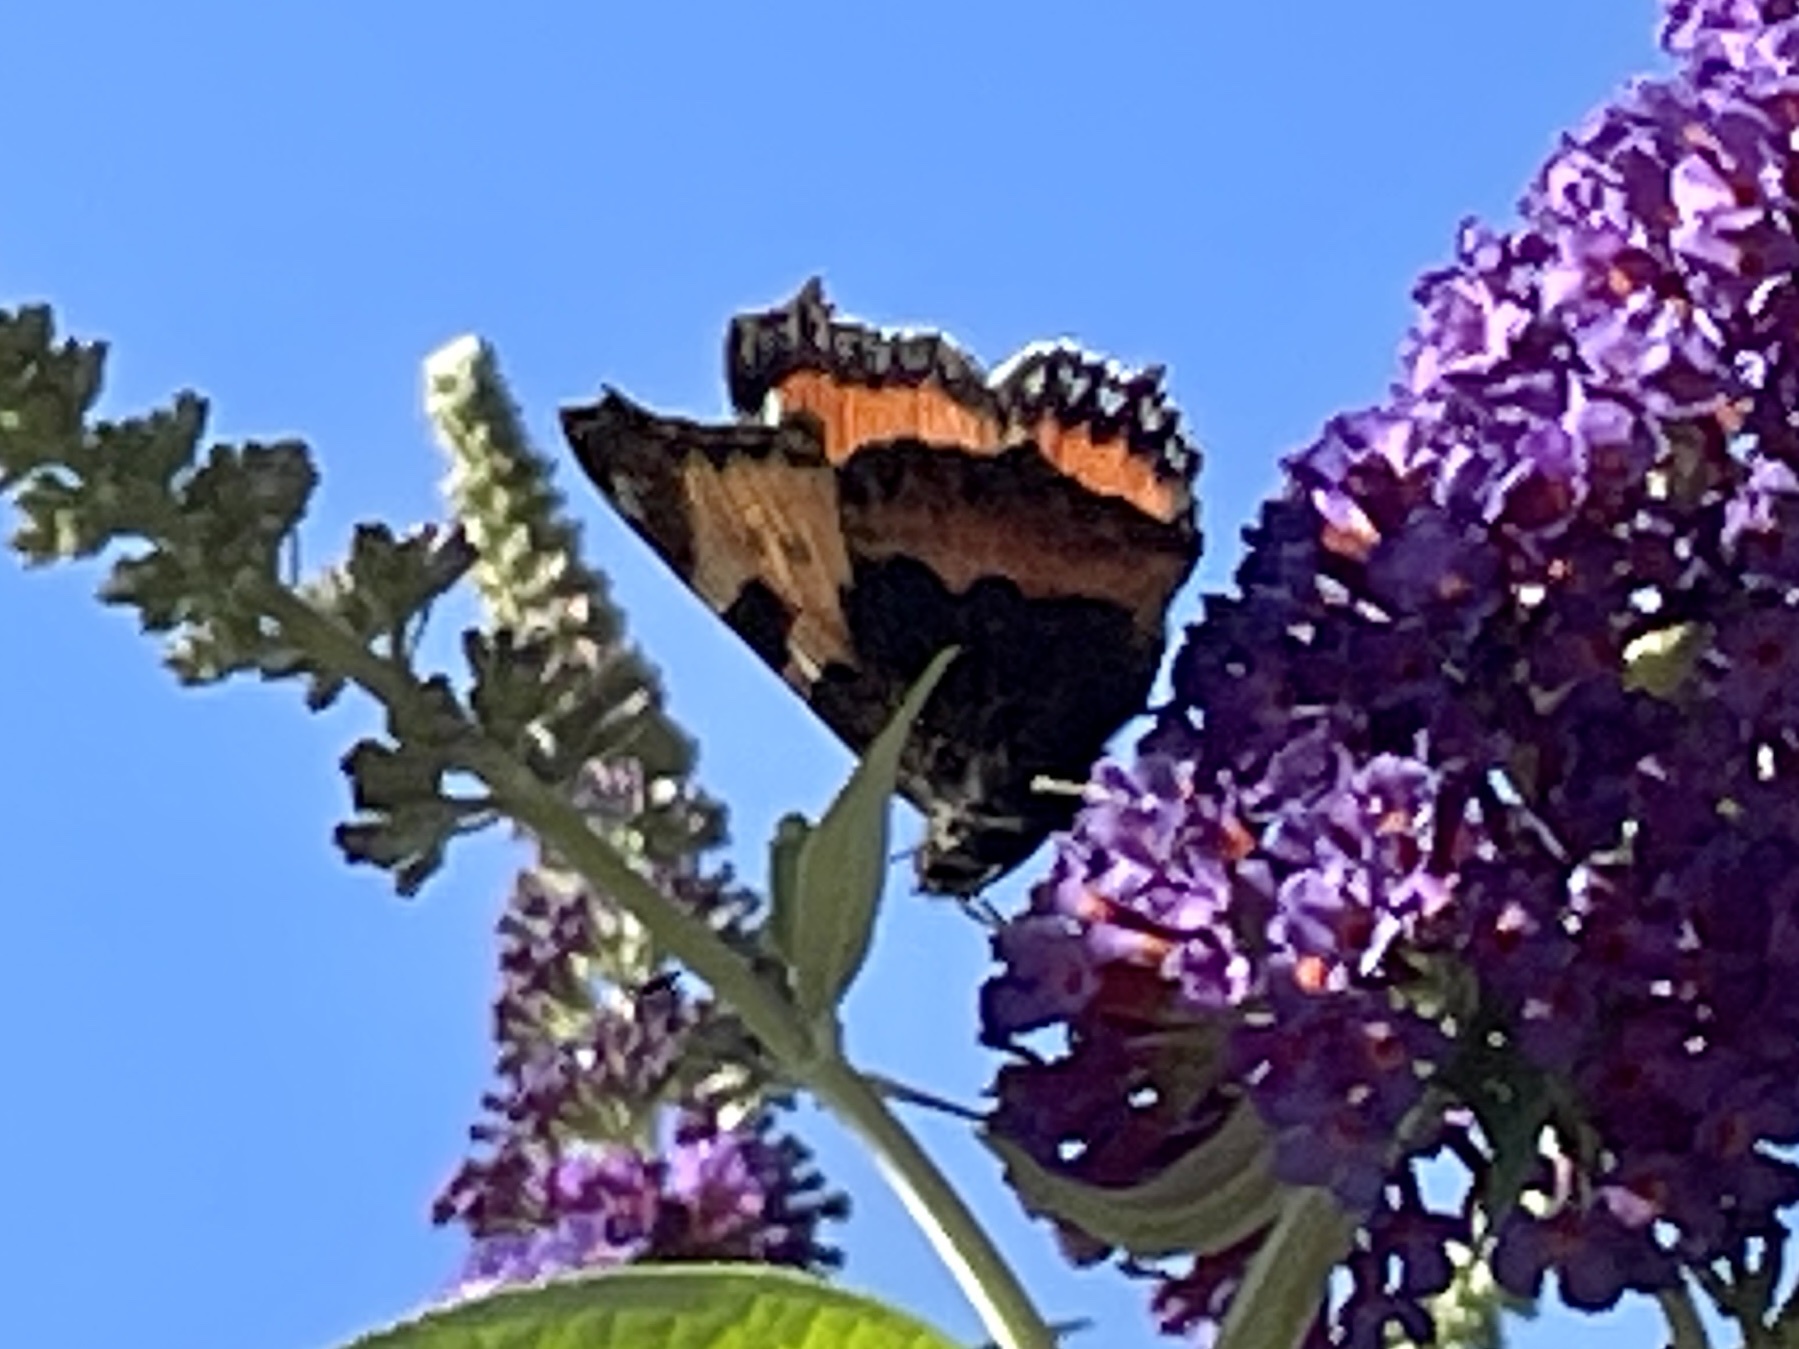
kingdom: Animalia
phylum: Arthropoda
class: Insecta
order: Lepidoptera
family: Nymphalidae
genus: Aglais
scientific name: Aglais urticae
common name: Small tortoiseshell
